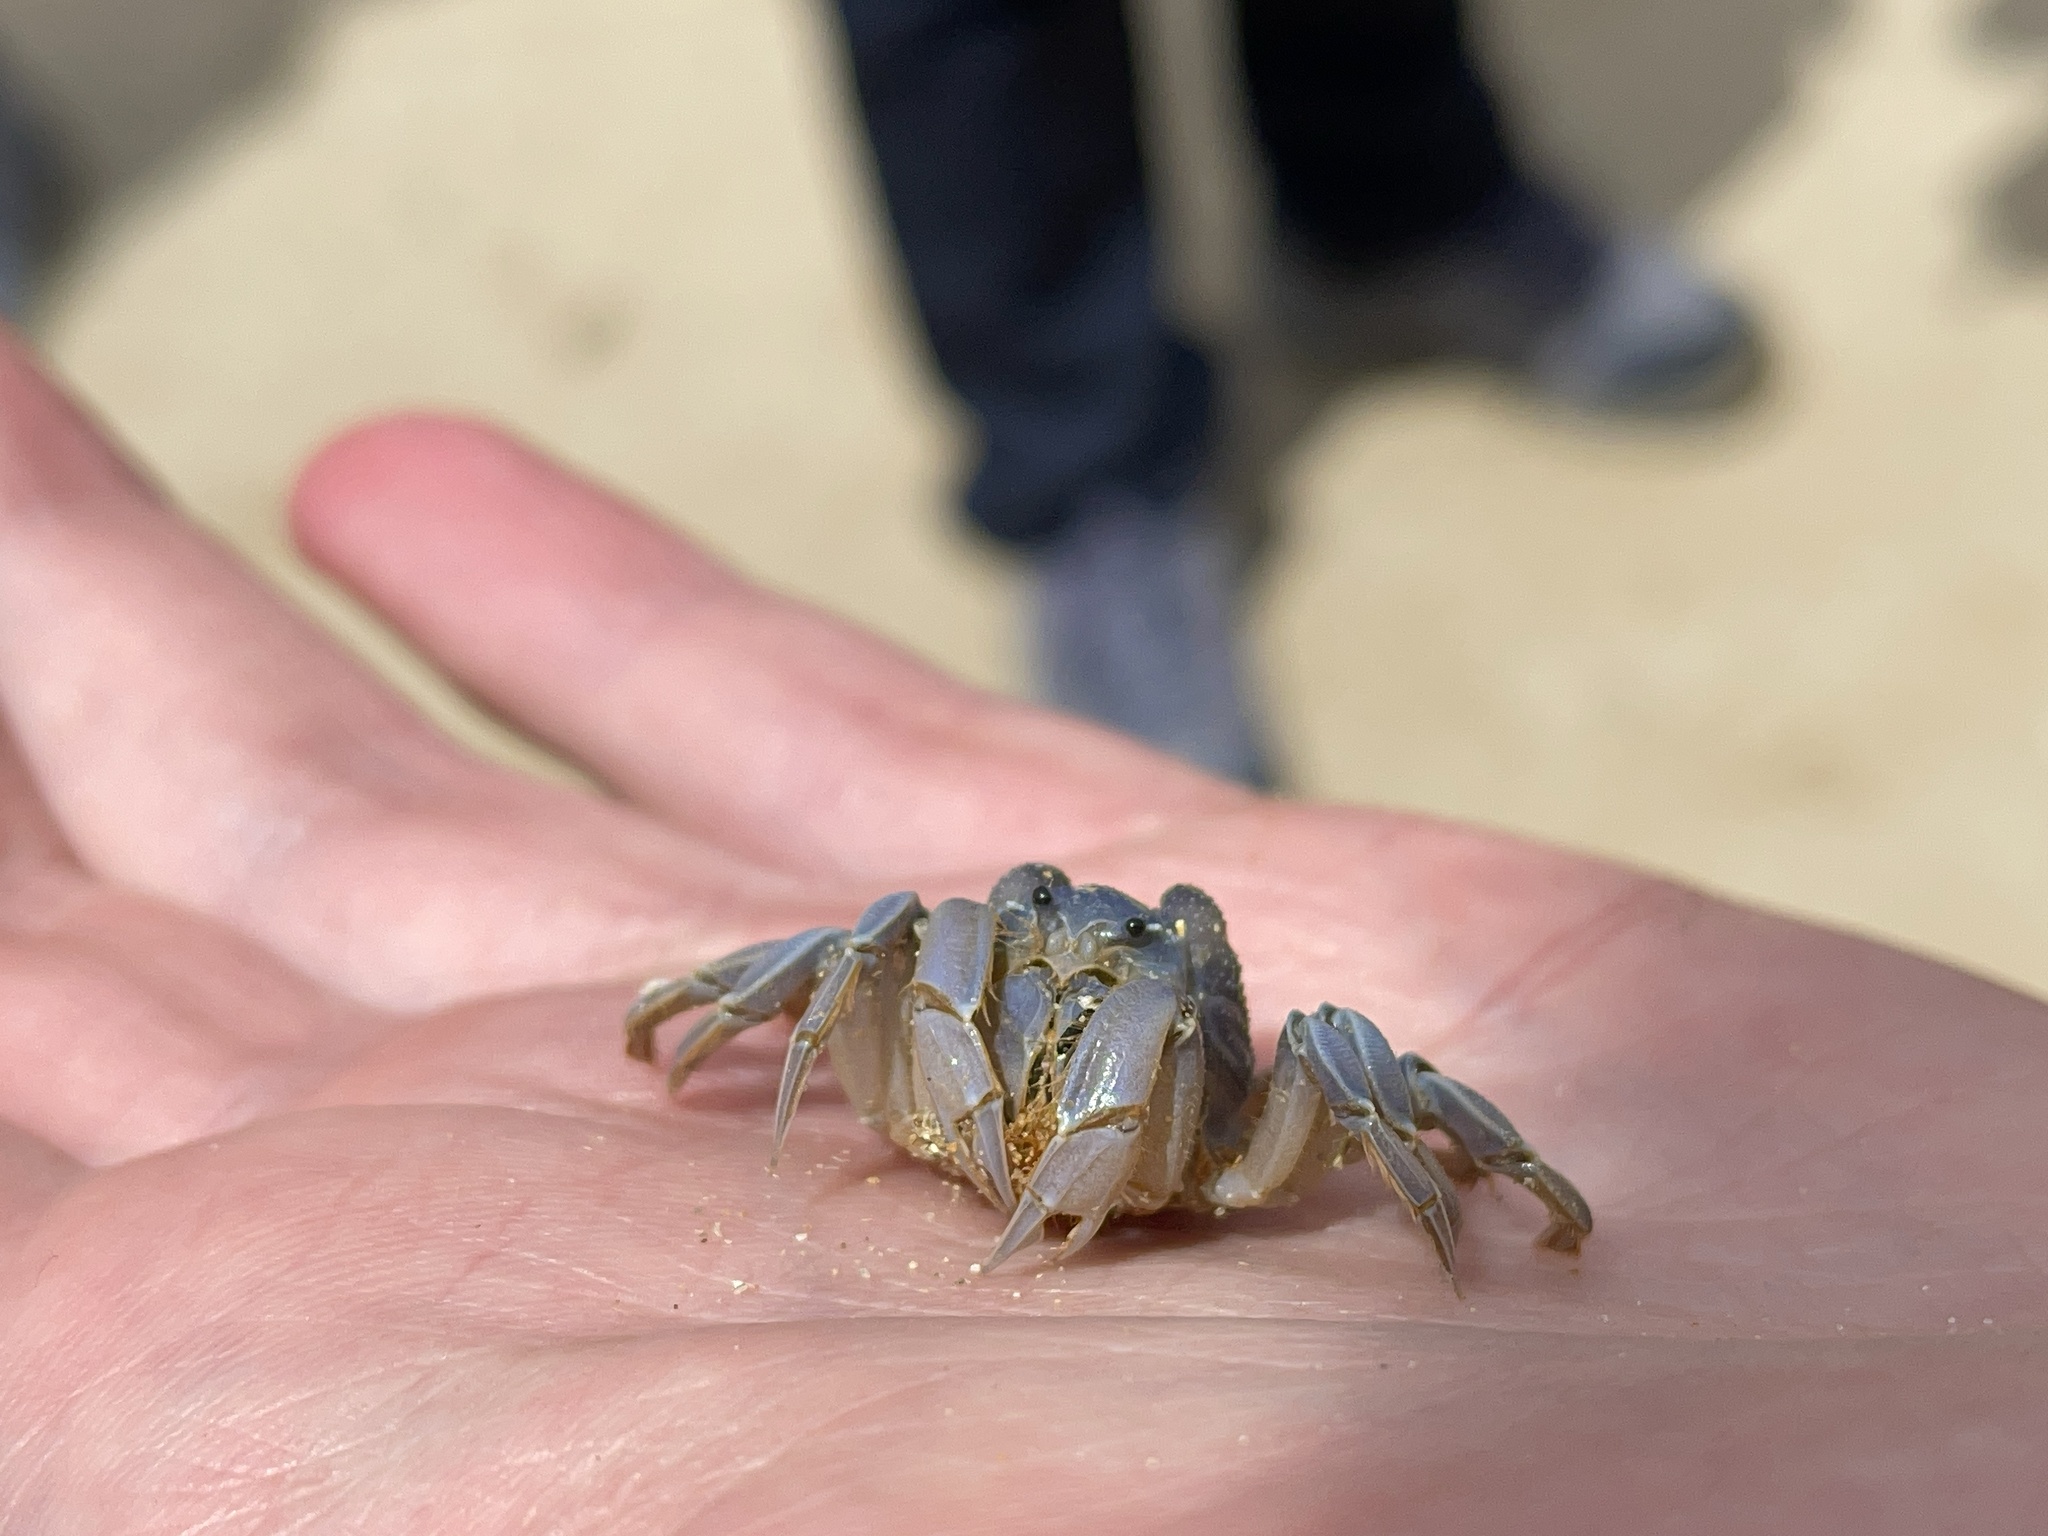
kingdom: Animalia
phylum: Arthropoda
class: Malacostraca
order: Decapoda
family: Mictyridae
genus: Mictyris
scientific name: Mictyris platycheles
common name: Dark blue soldier crab
